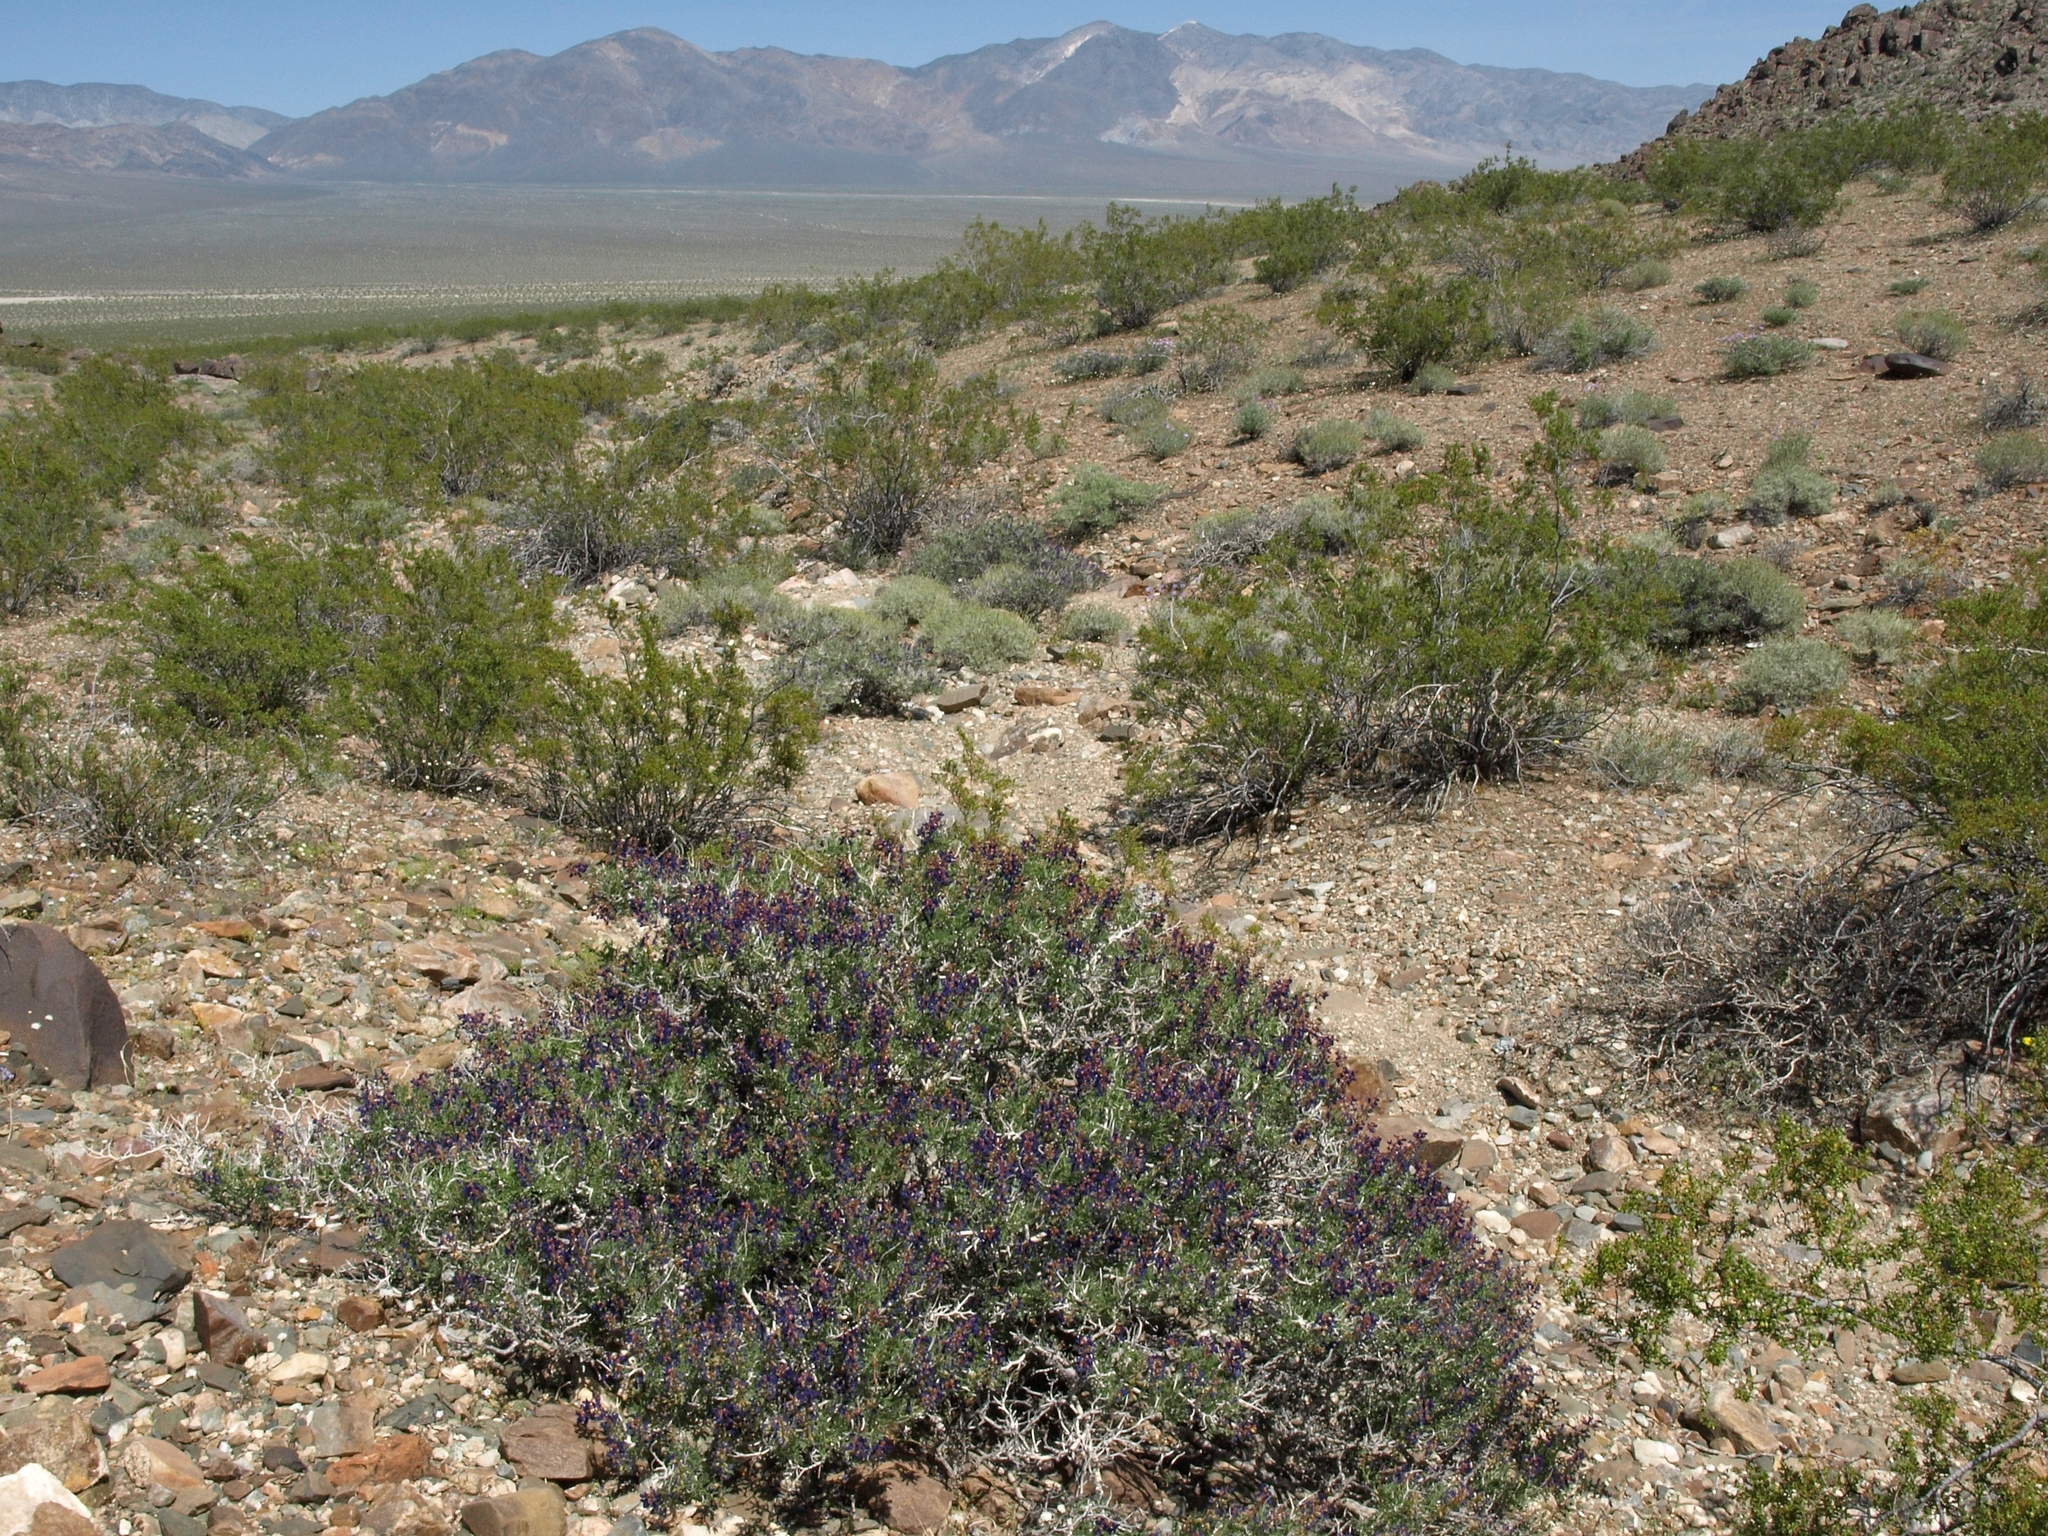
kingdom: Plantae
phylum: Tracheophyta
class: Magnoliopsida
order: Fabales
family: Fabaceae
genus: Psorothamnus
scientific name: Psorothamnus arborescens
